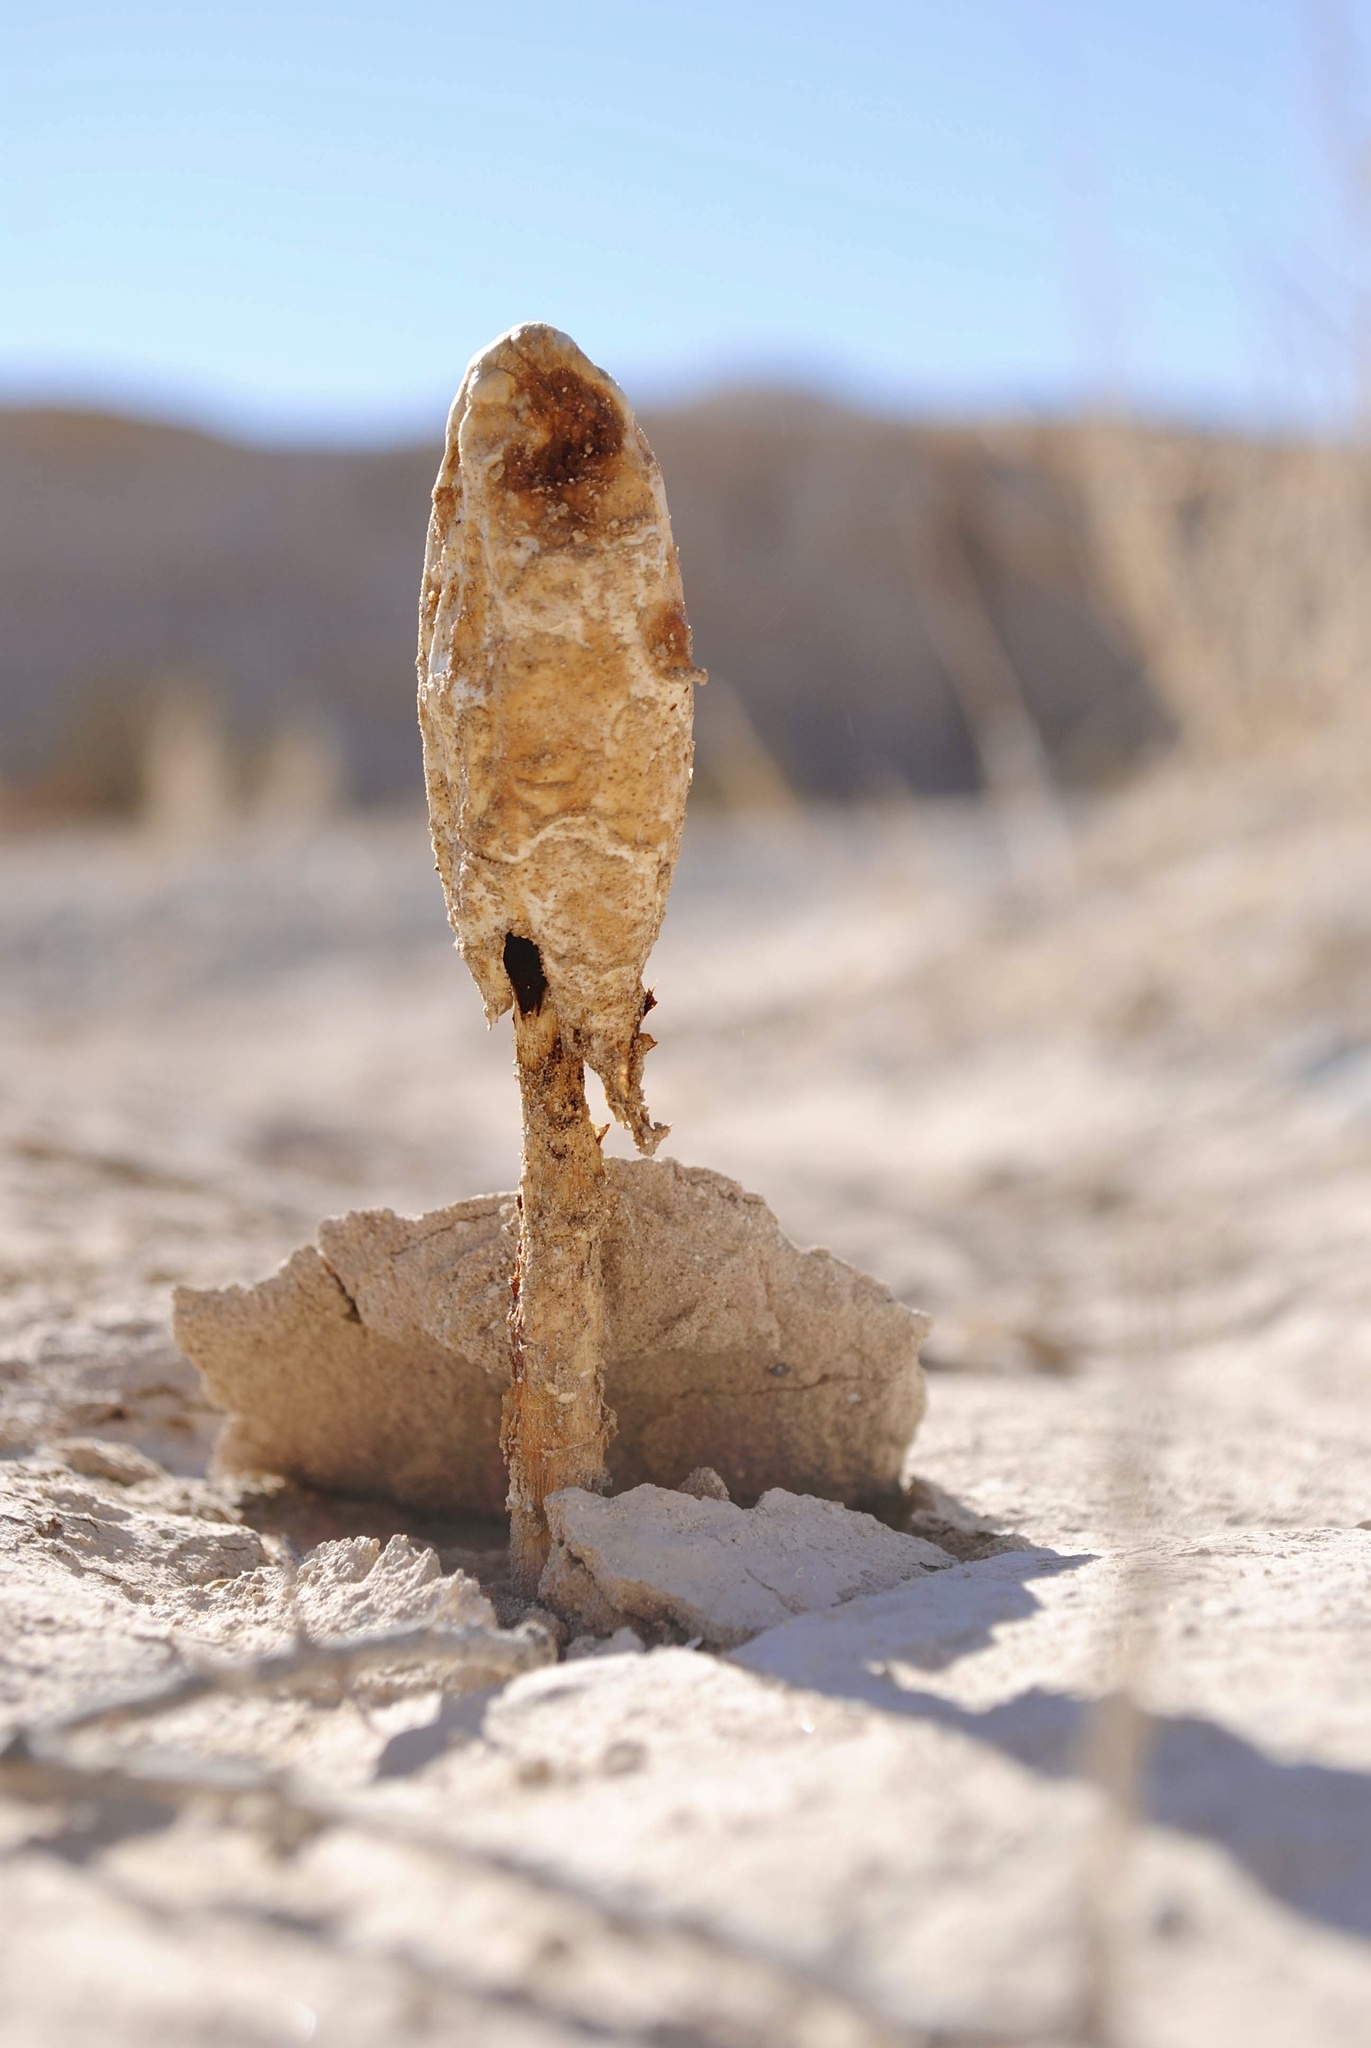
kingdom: Fungi
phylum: Basidiomycota
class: Agaricomycetes
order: Agaricales
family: Agaricaceae
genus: Podaxis
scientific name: Podaxis pistillaris
